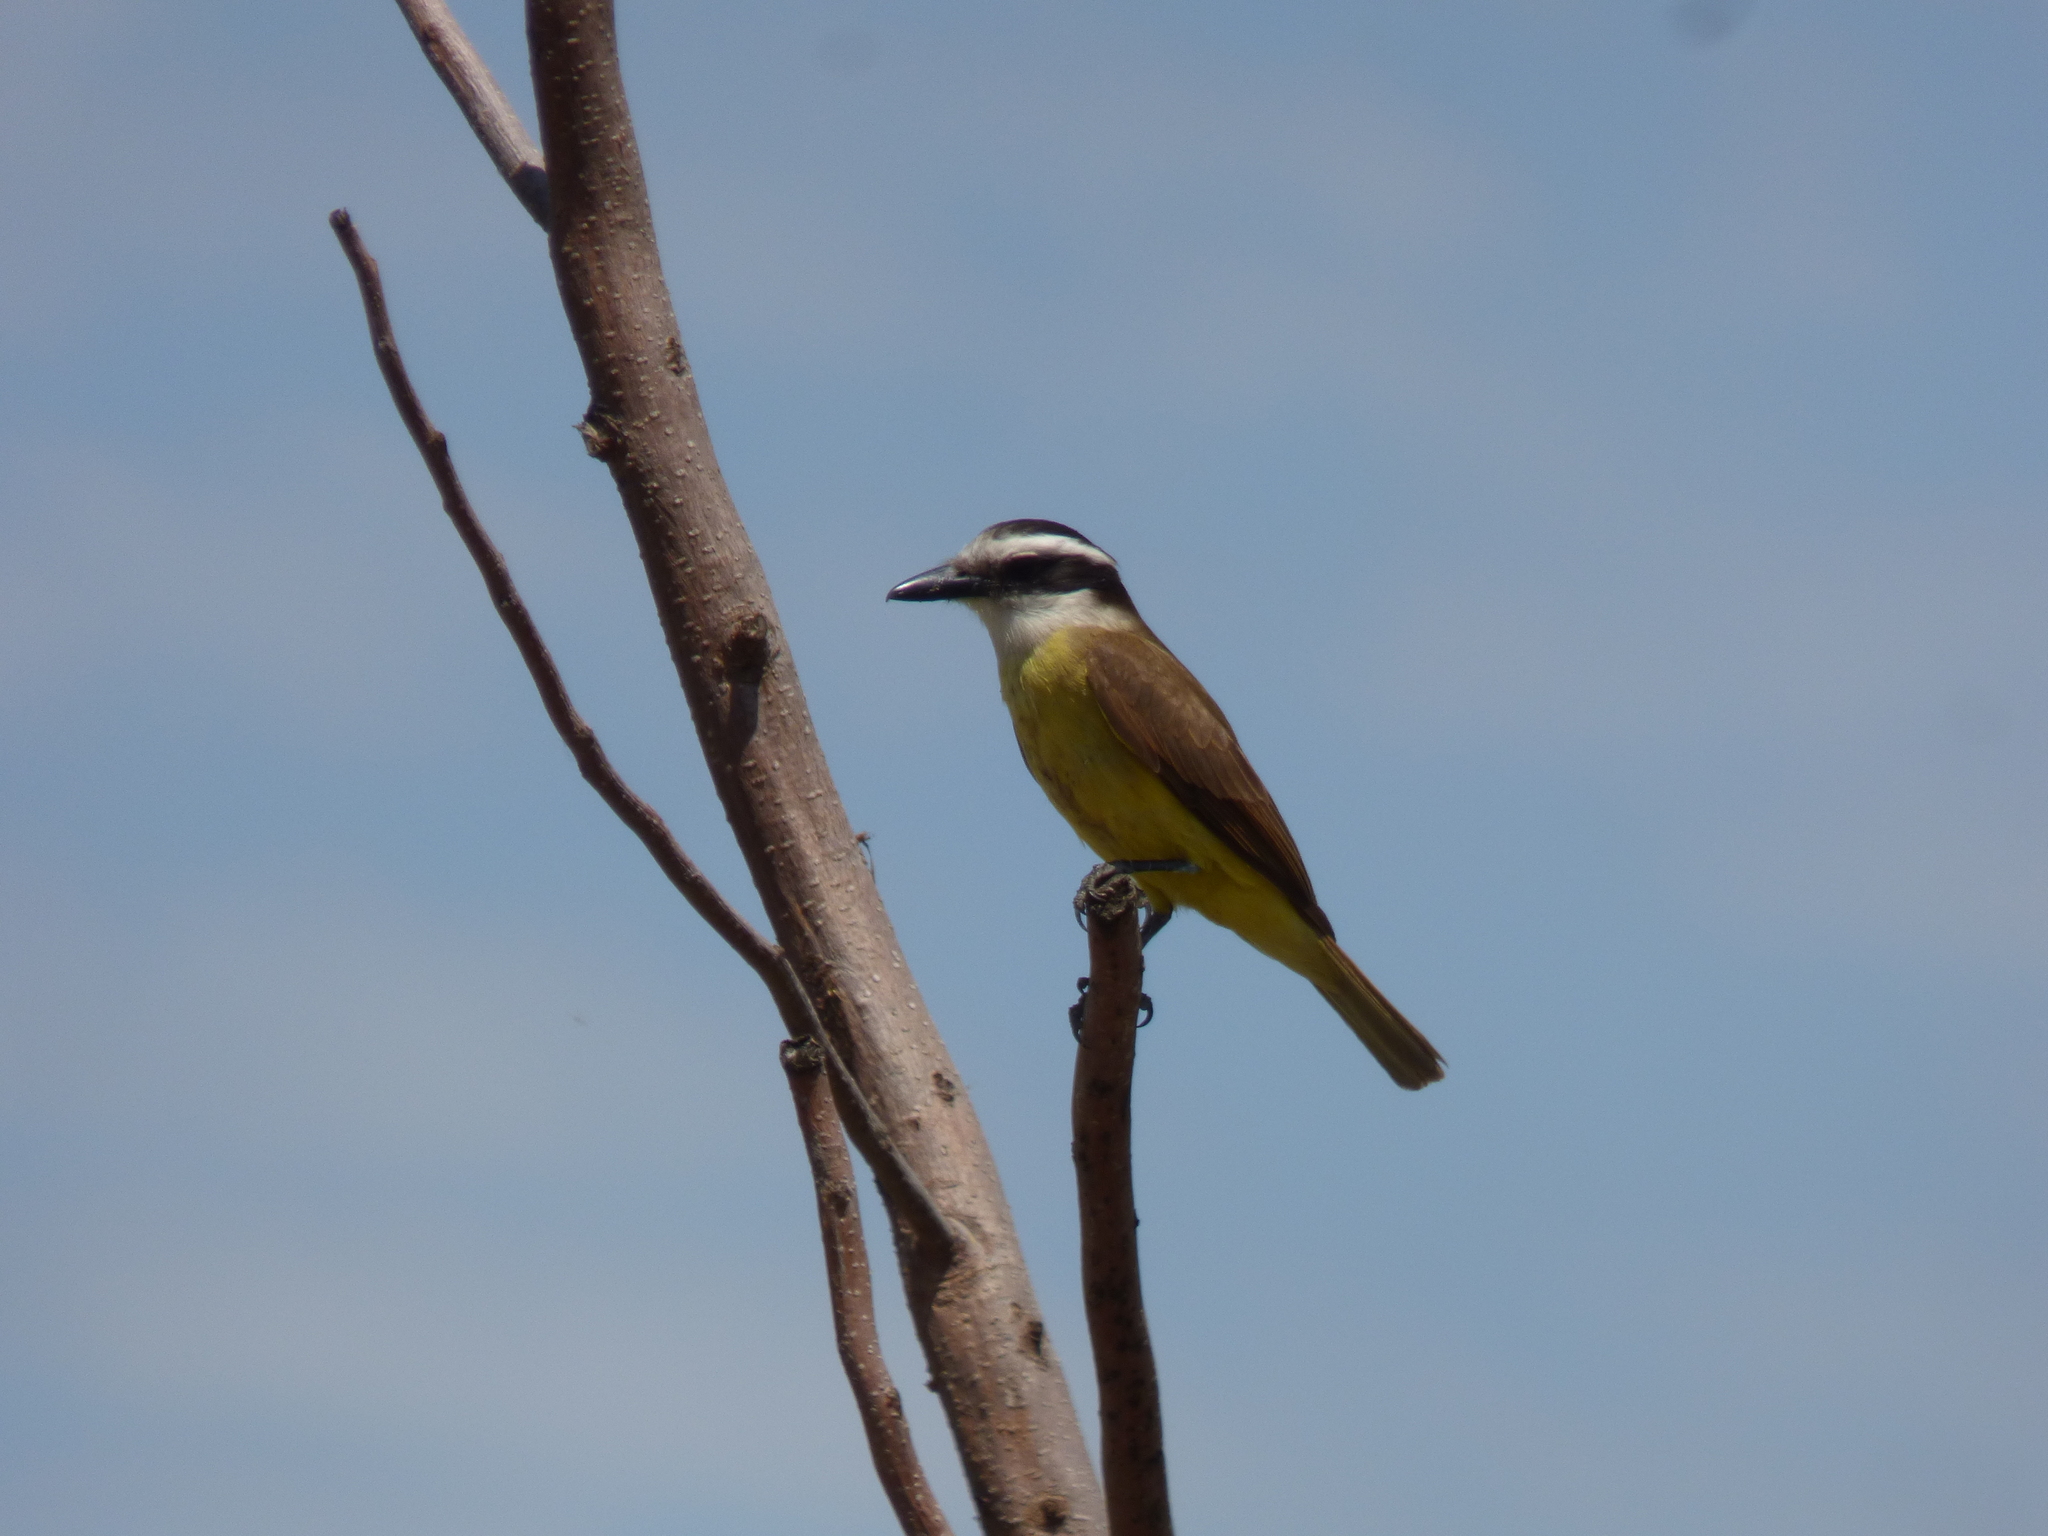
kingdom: Animalia
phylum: Chordata
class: Aves
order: Passeriformes
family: Tyrannidae
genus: Pitangus
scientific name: Pitangus sulphuratus
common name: Great kiskadee
